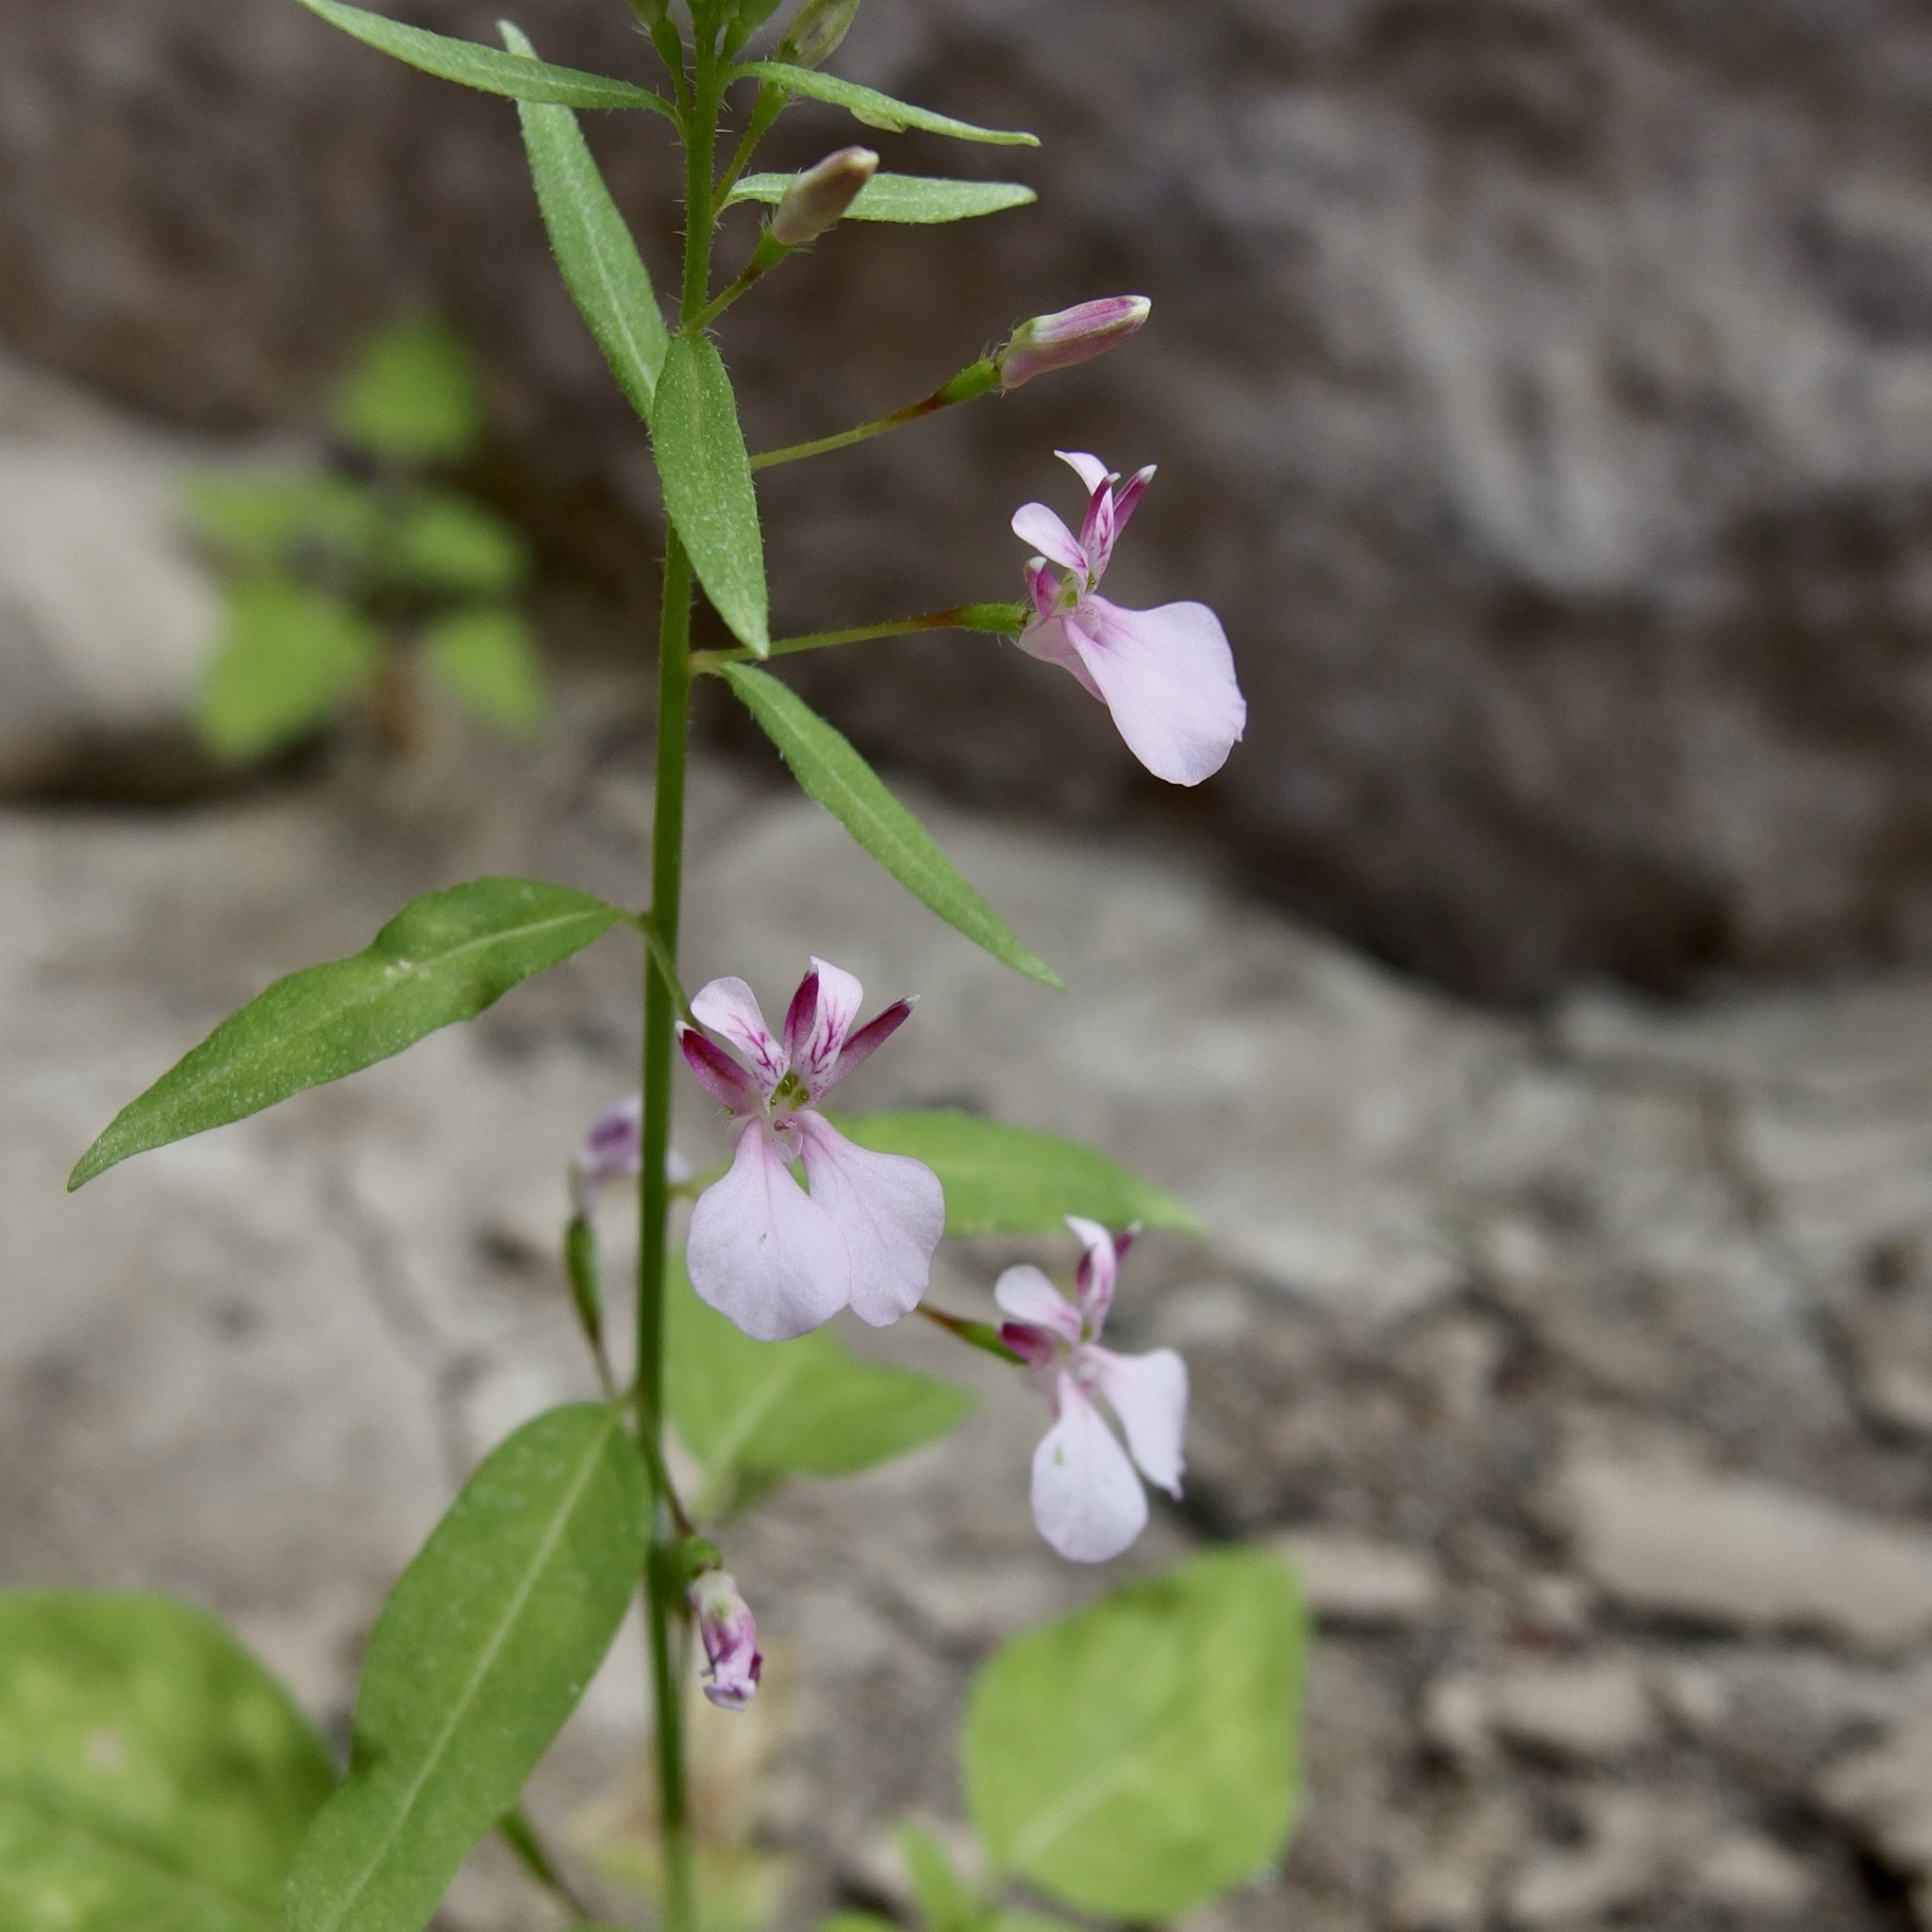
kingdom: Plantae
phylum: Tracheophyta
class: Magnoliopsida
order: Myrtales
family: Onagraceae
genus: Lopezia
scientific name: Lopezia clavata
